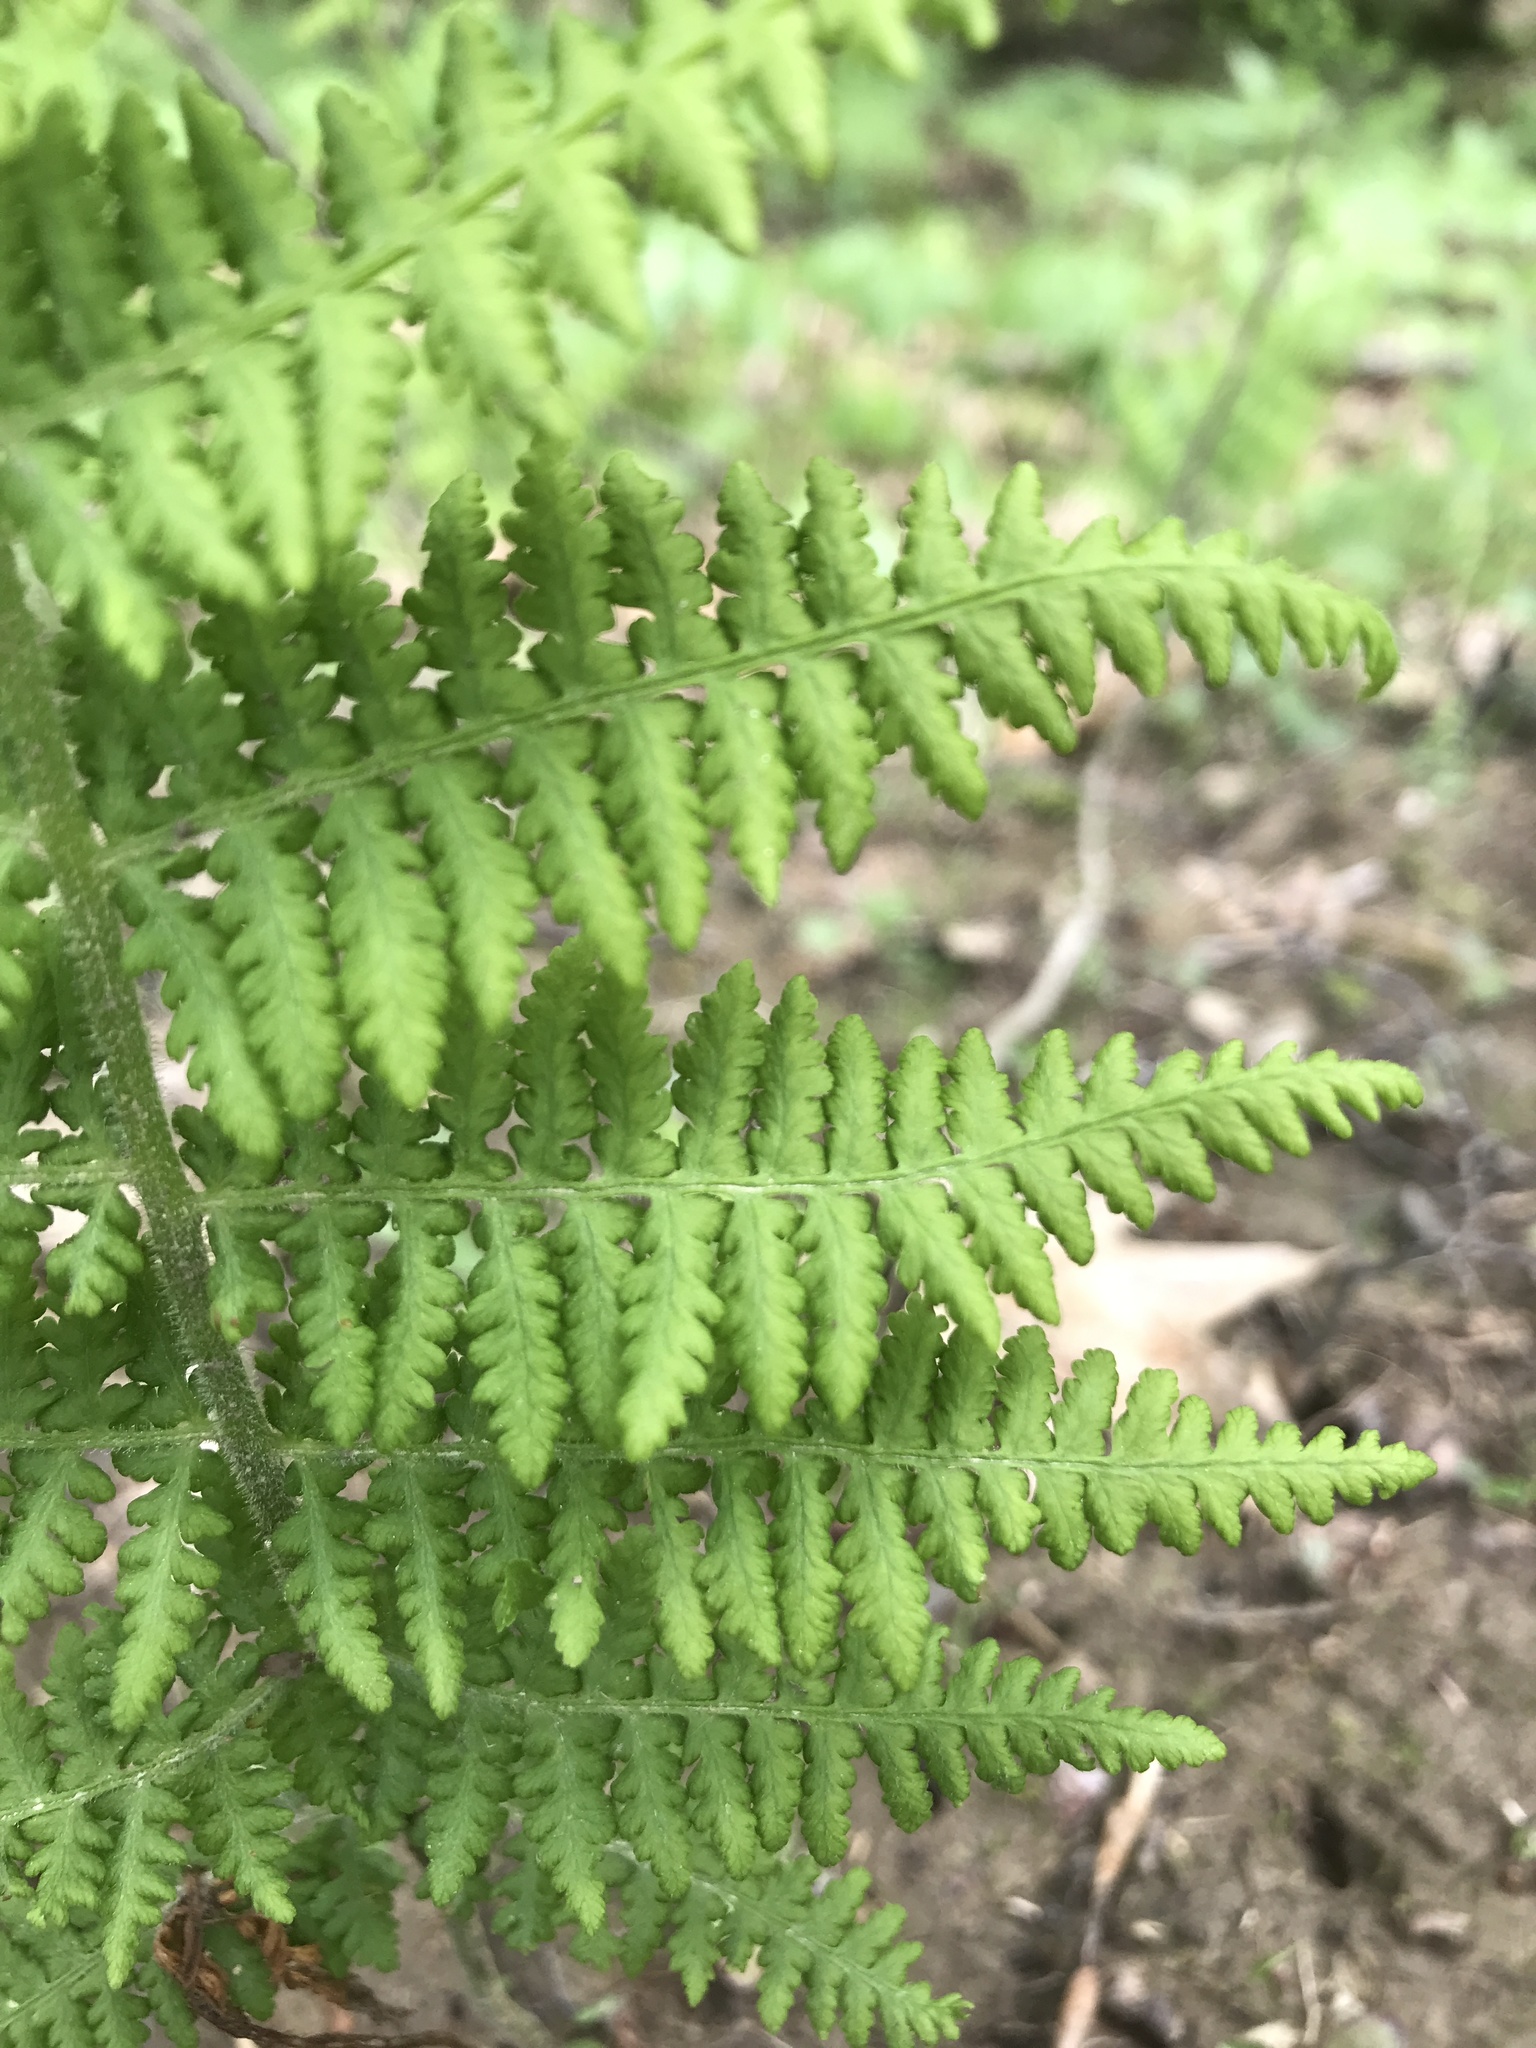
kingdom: Plantae
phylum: Tracheophyta
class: Polypodiopsida
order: Polypodiales
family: Dennstaedtiaceae
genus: Sitobolium
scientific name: Sitobolium punctilobum
